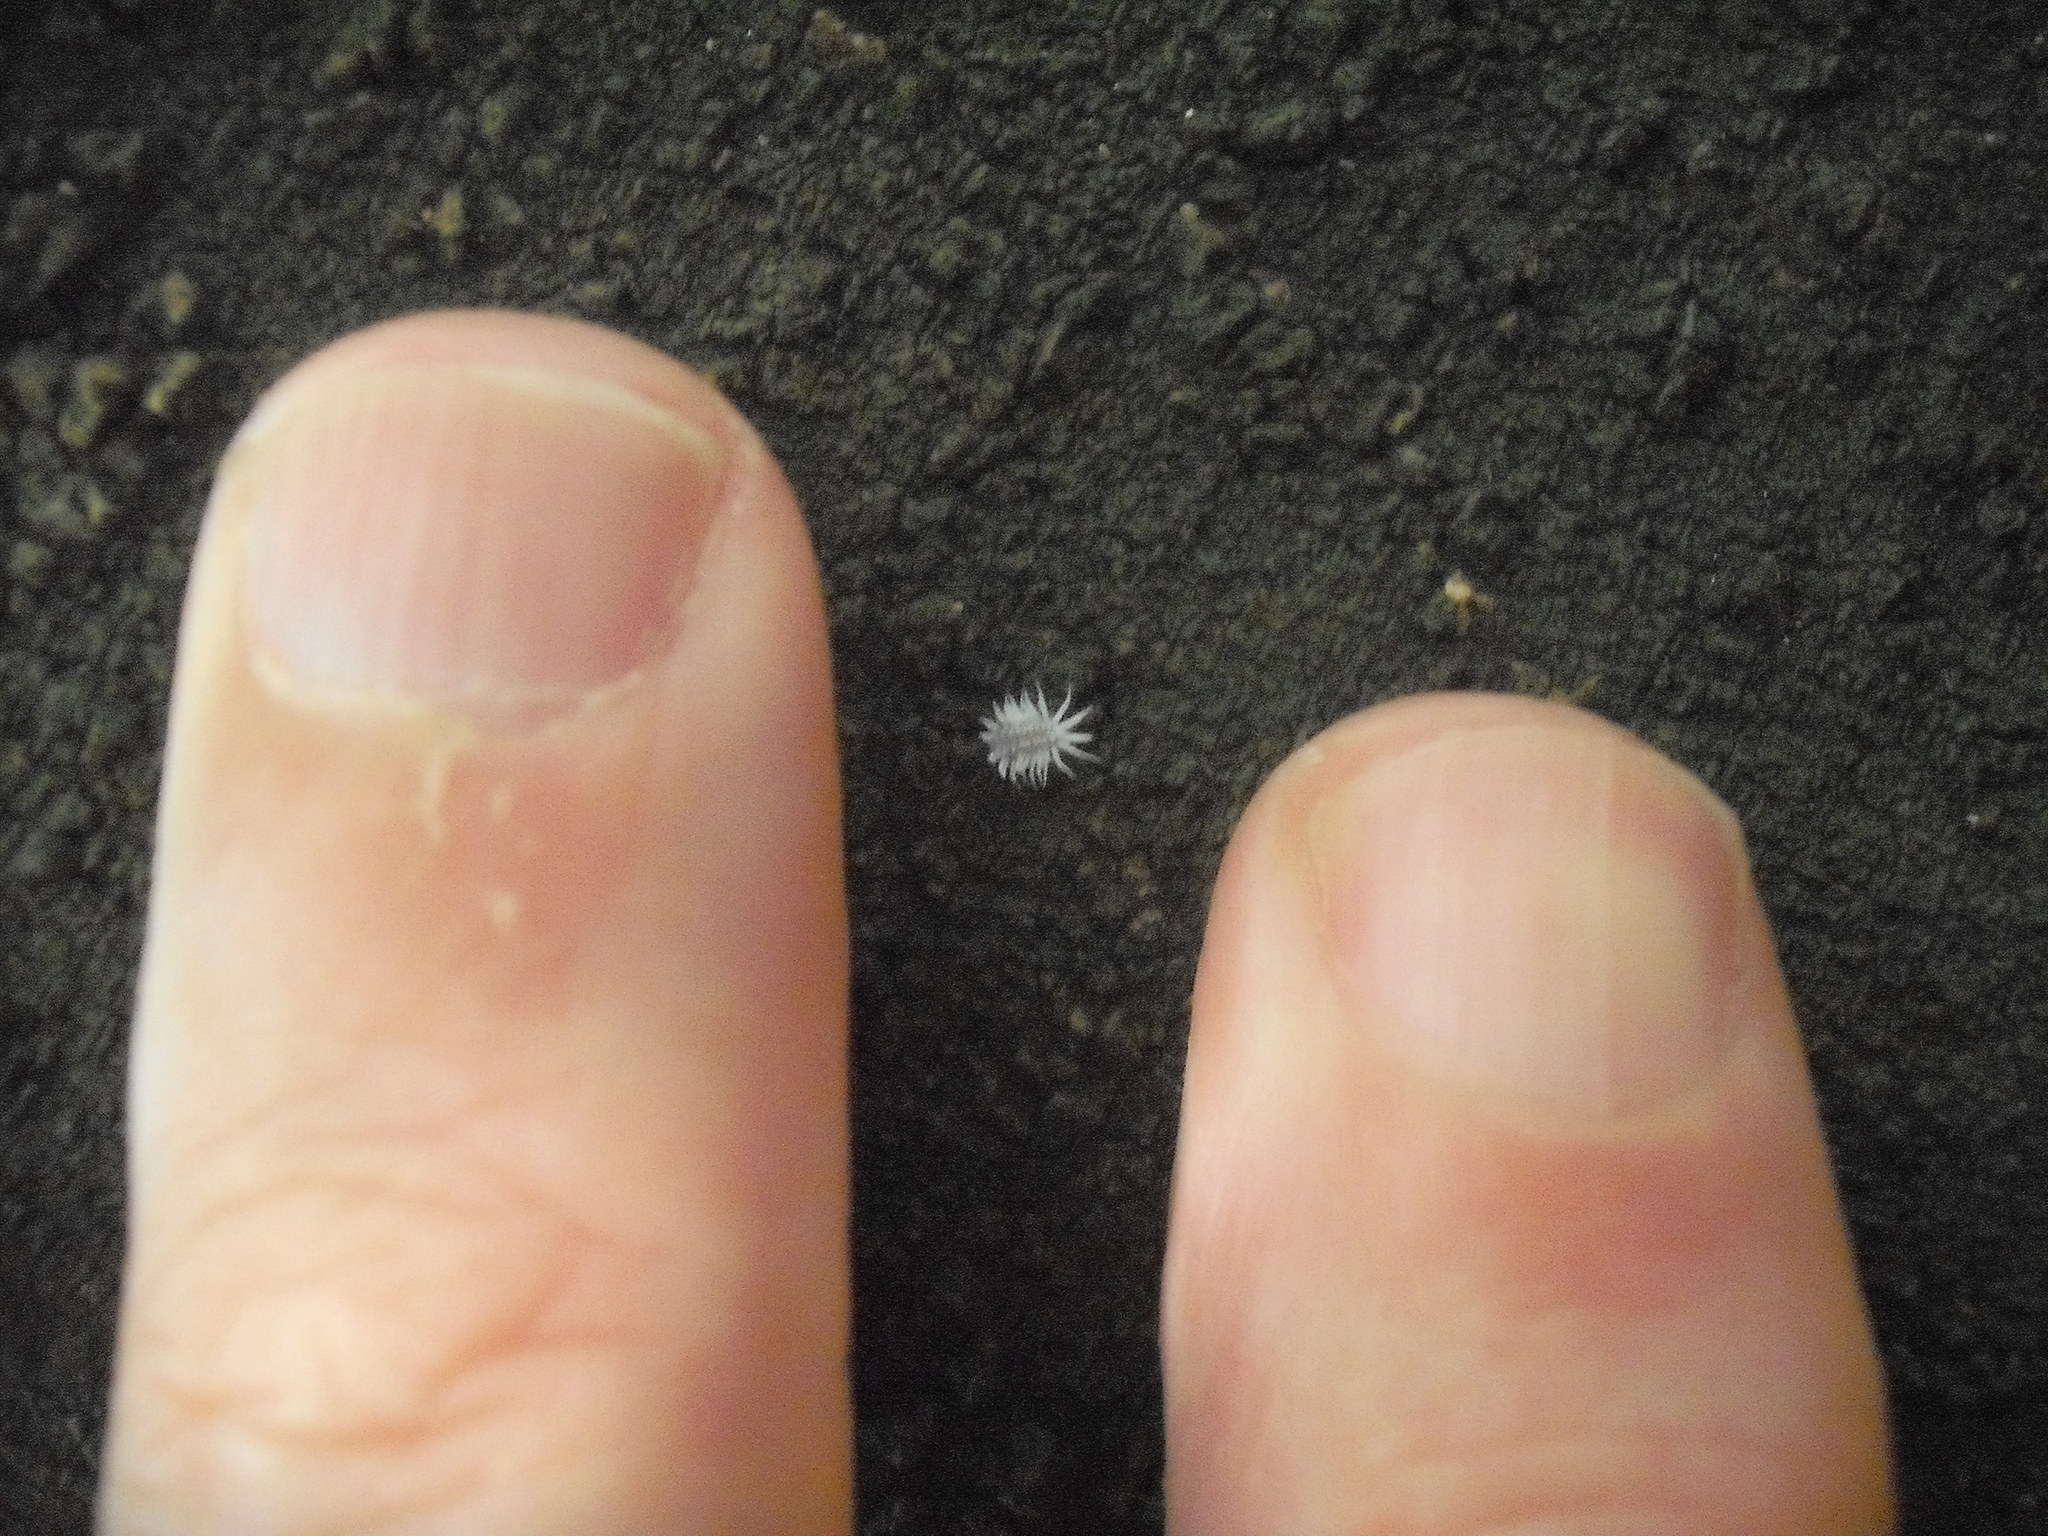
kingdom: Animalia
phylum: Arthropoda
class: Insecta
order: Coleoptera
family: Coccinellidae
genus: Telsimia
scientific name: Telsimia
